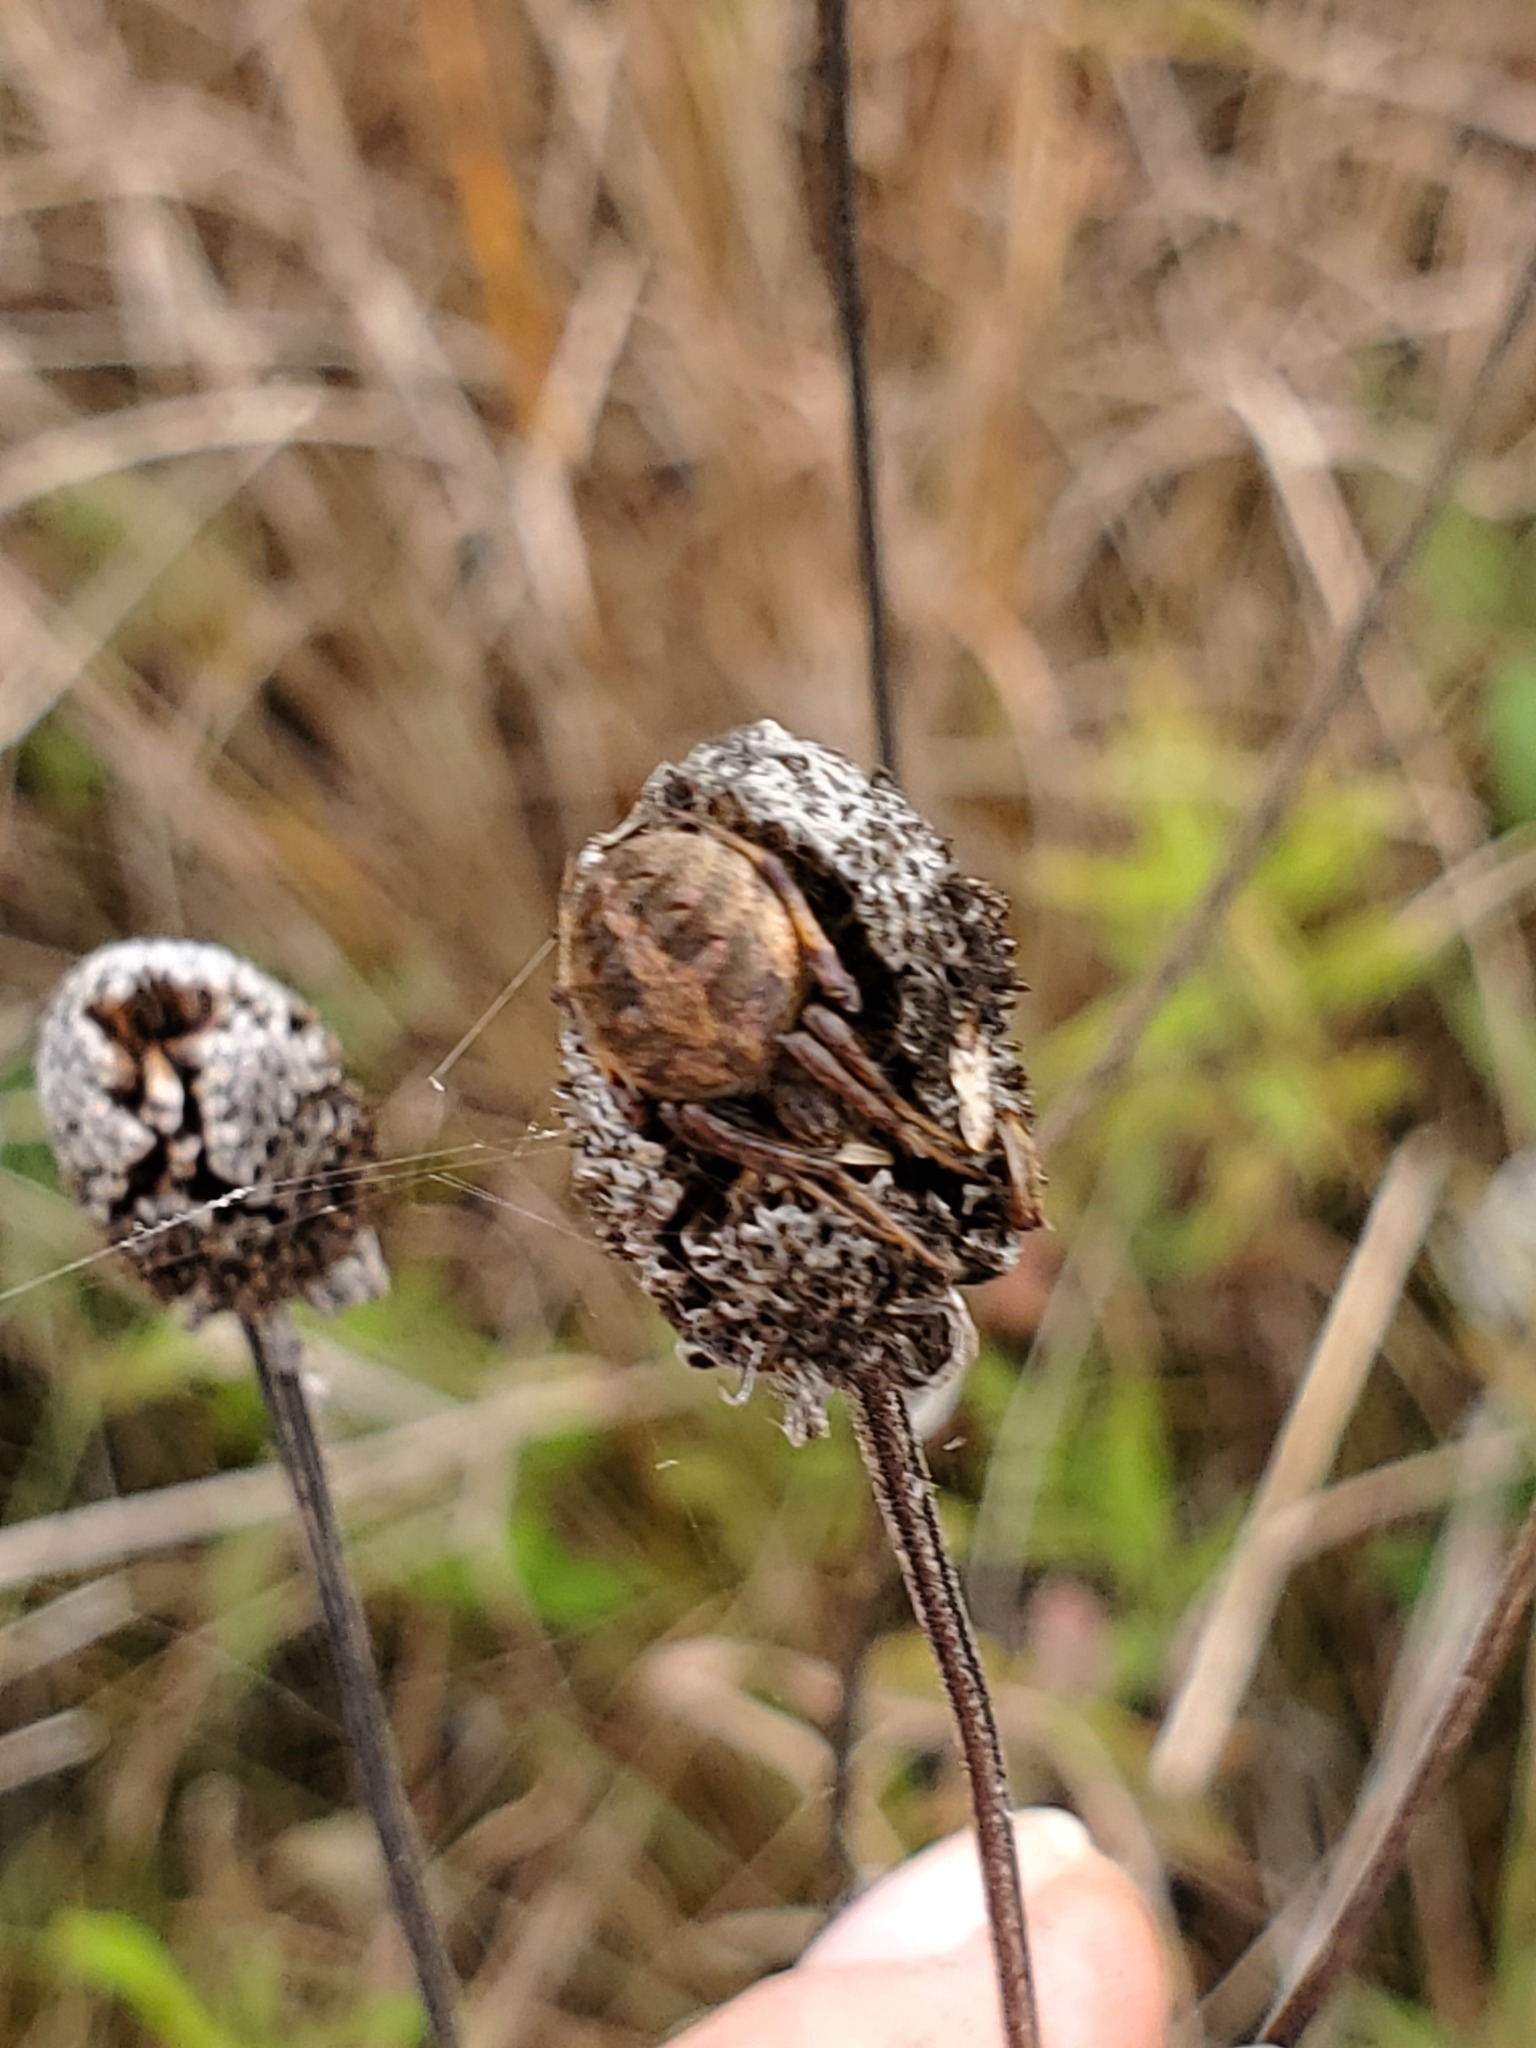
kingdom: Animalia
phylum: Arthropoda
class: Arachnida
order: Araneae
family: Araneidae
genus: Neoscona
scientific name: Neoscona arabesca
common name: Orb weavers
